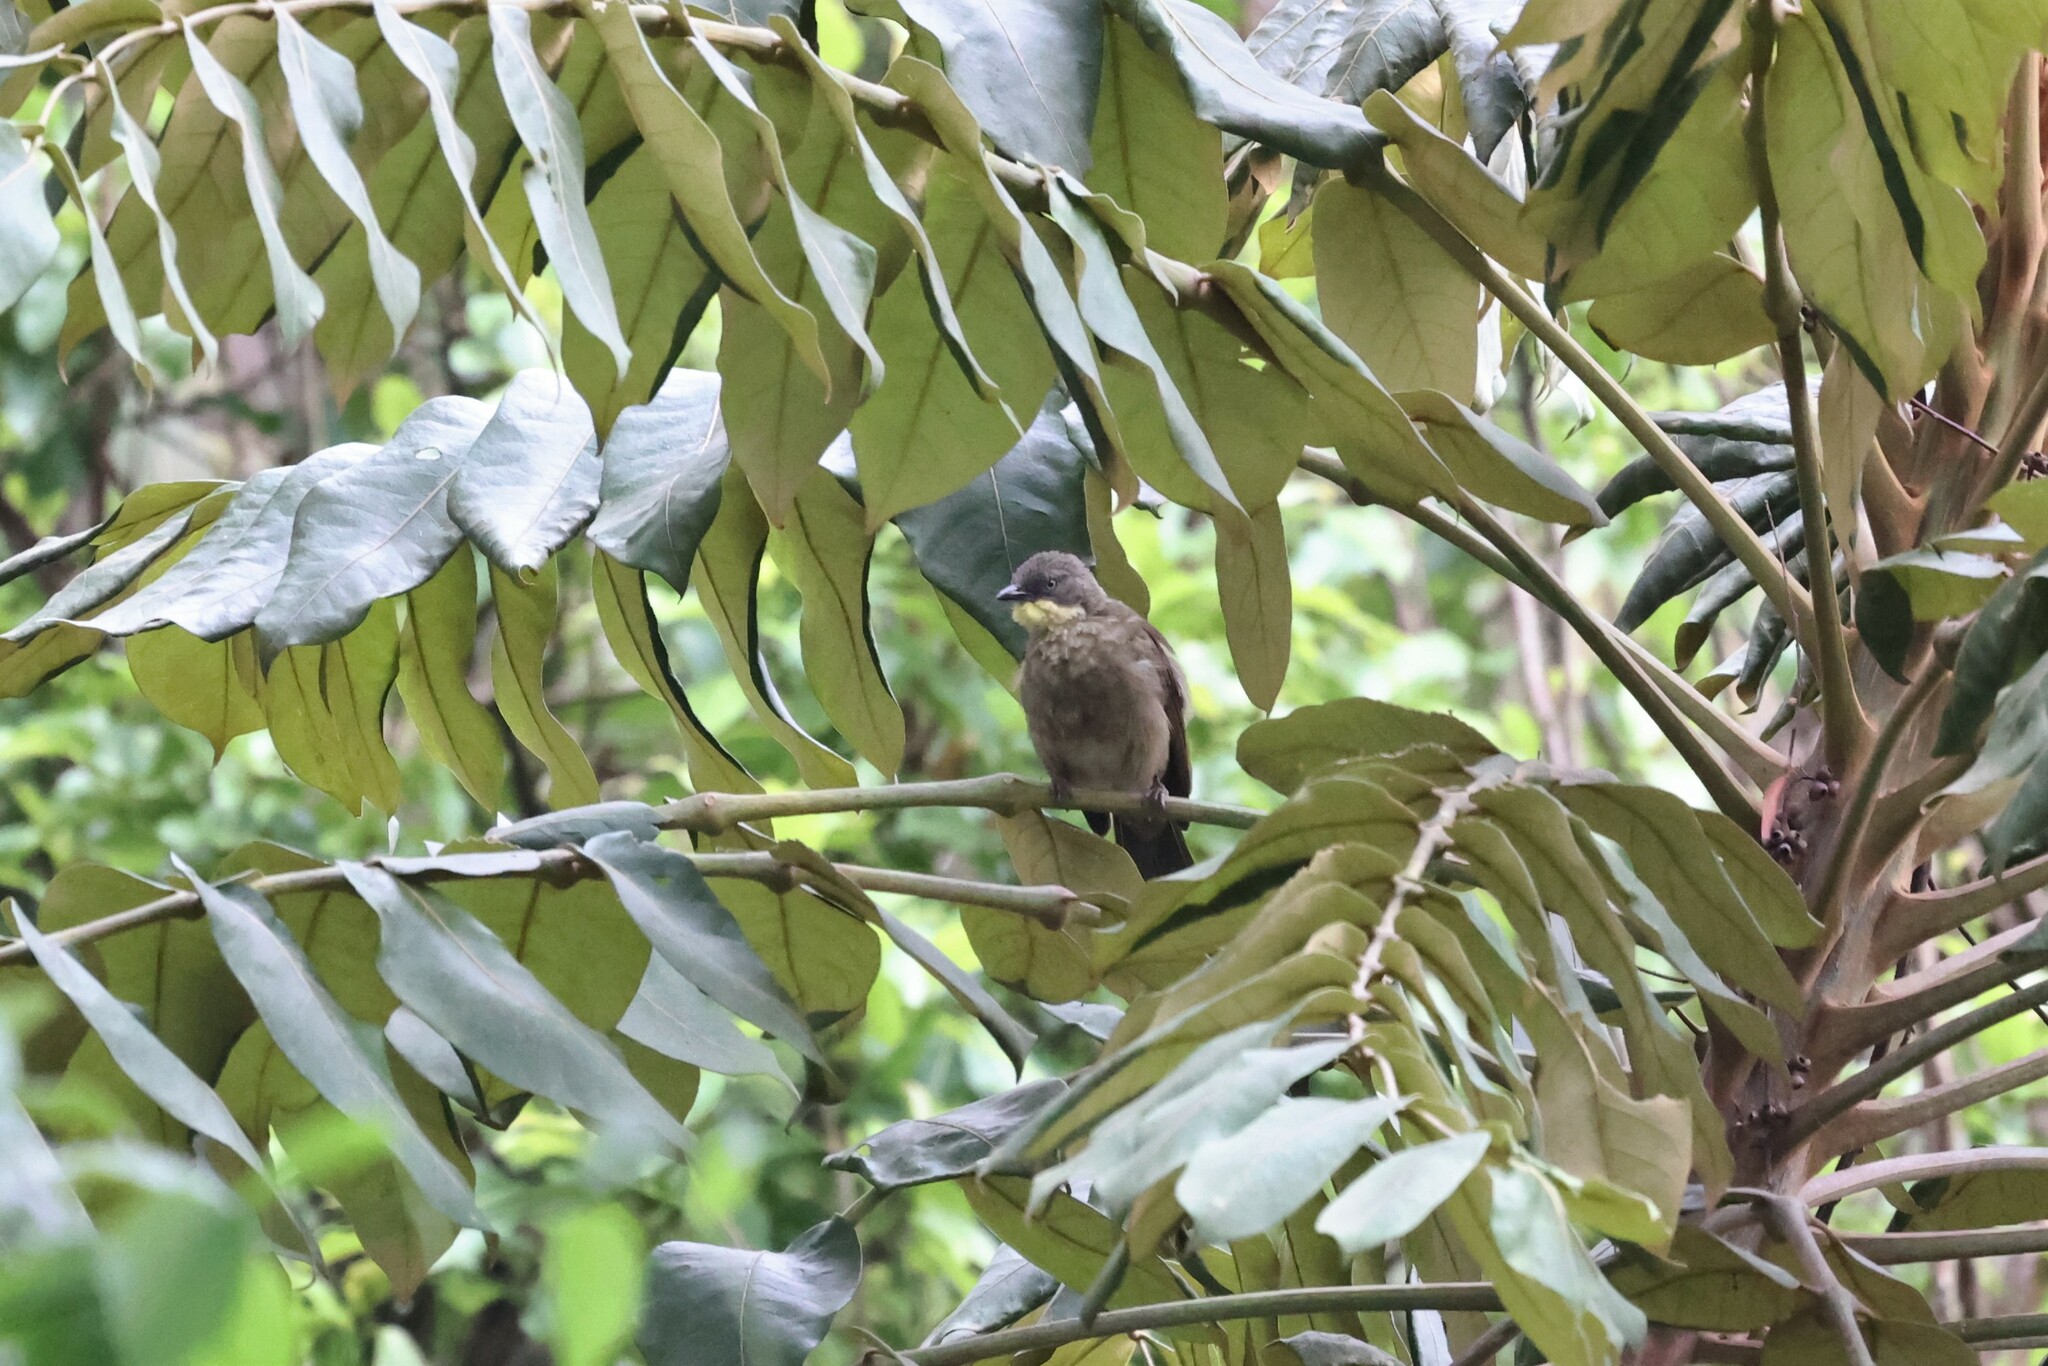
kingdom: Animalia
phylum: Chordata
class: Aves
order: Passeriformes
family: Pycnonotidae
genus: Atimastillas
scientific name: Atimastillas flavicollis
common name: Yellow-throated leaflove
